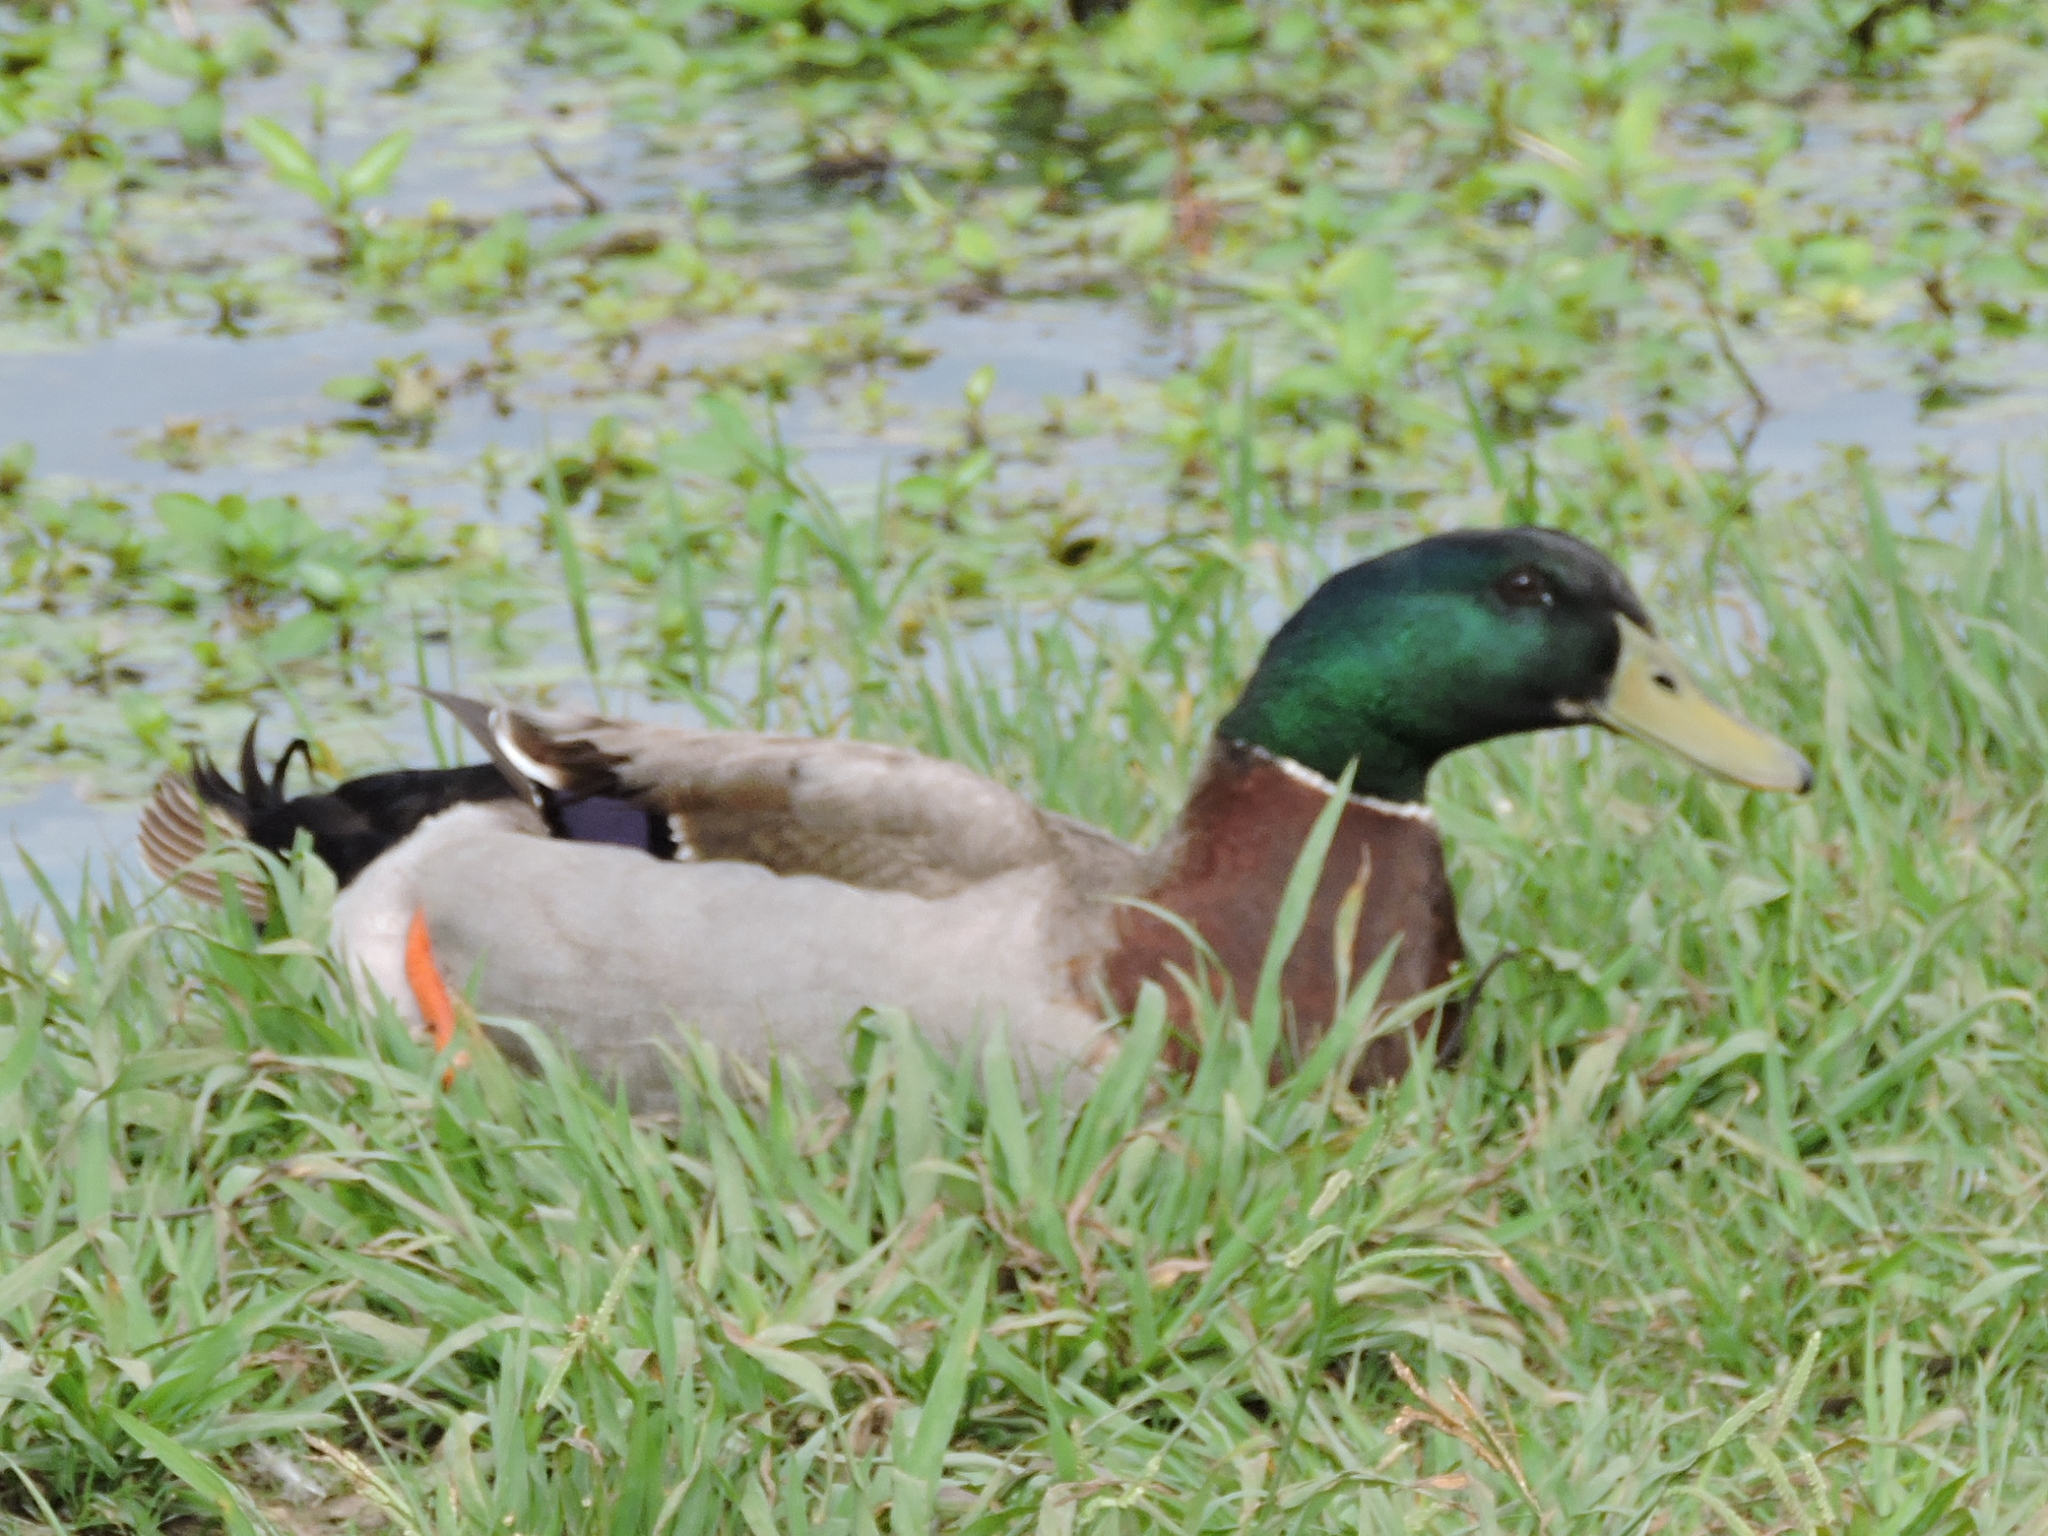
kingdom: Animalia
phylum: Chordata
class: Aves
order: Anseriformes
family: Anatidae
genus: Anas
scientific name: Anas platyrhynchos
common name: Mallard
